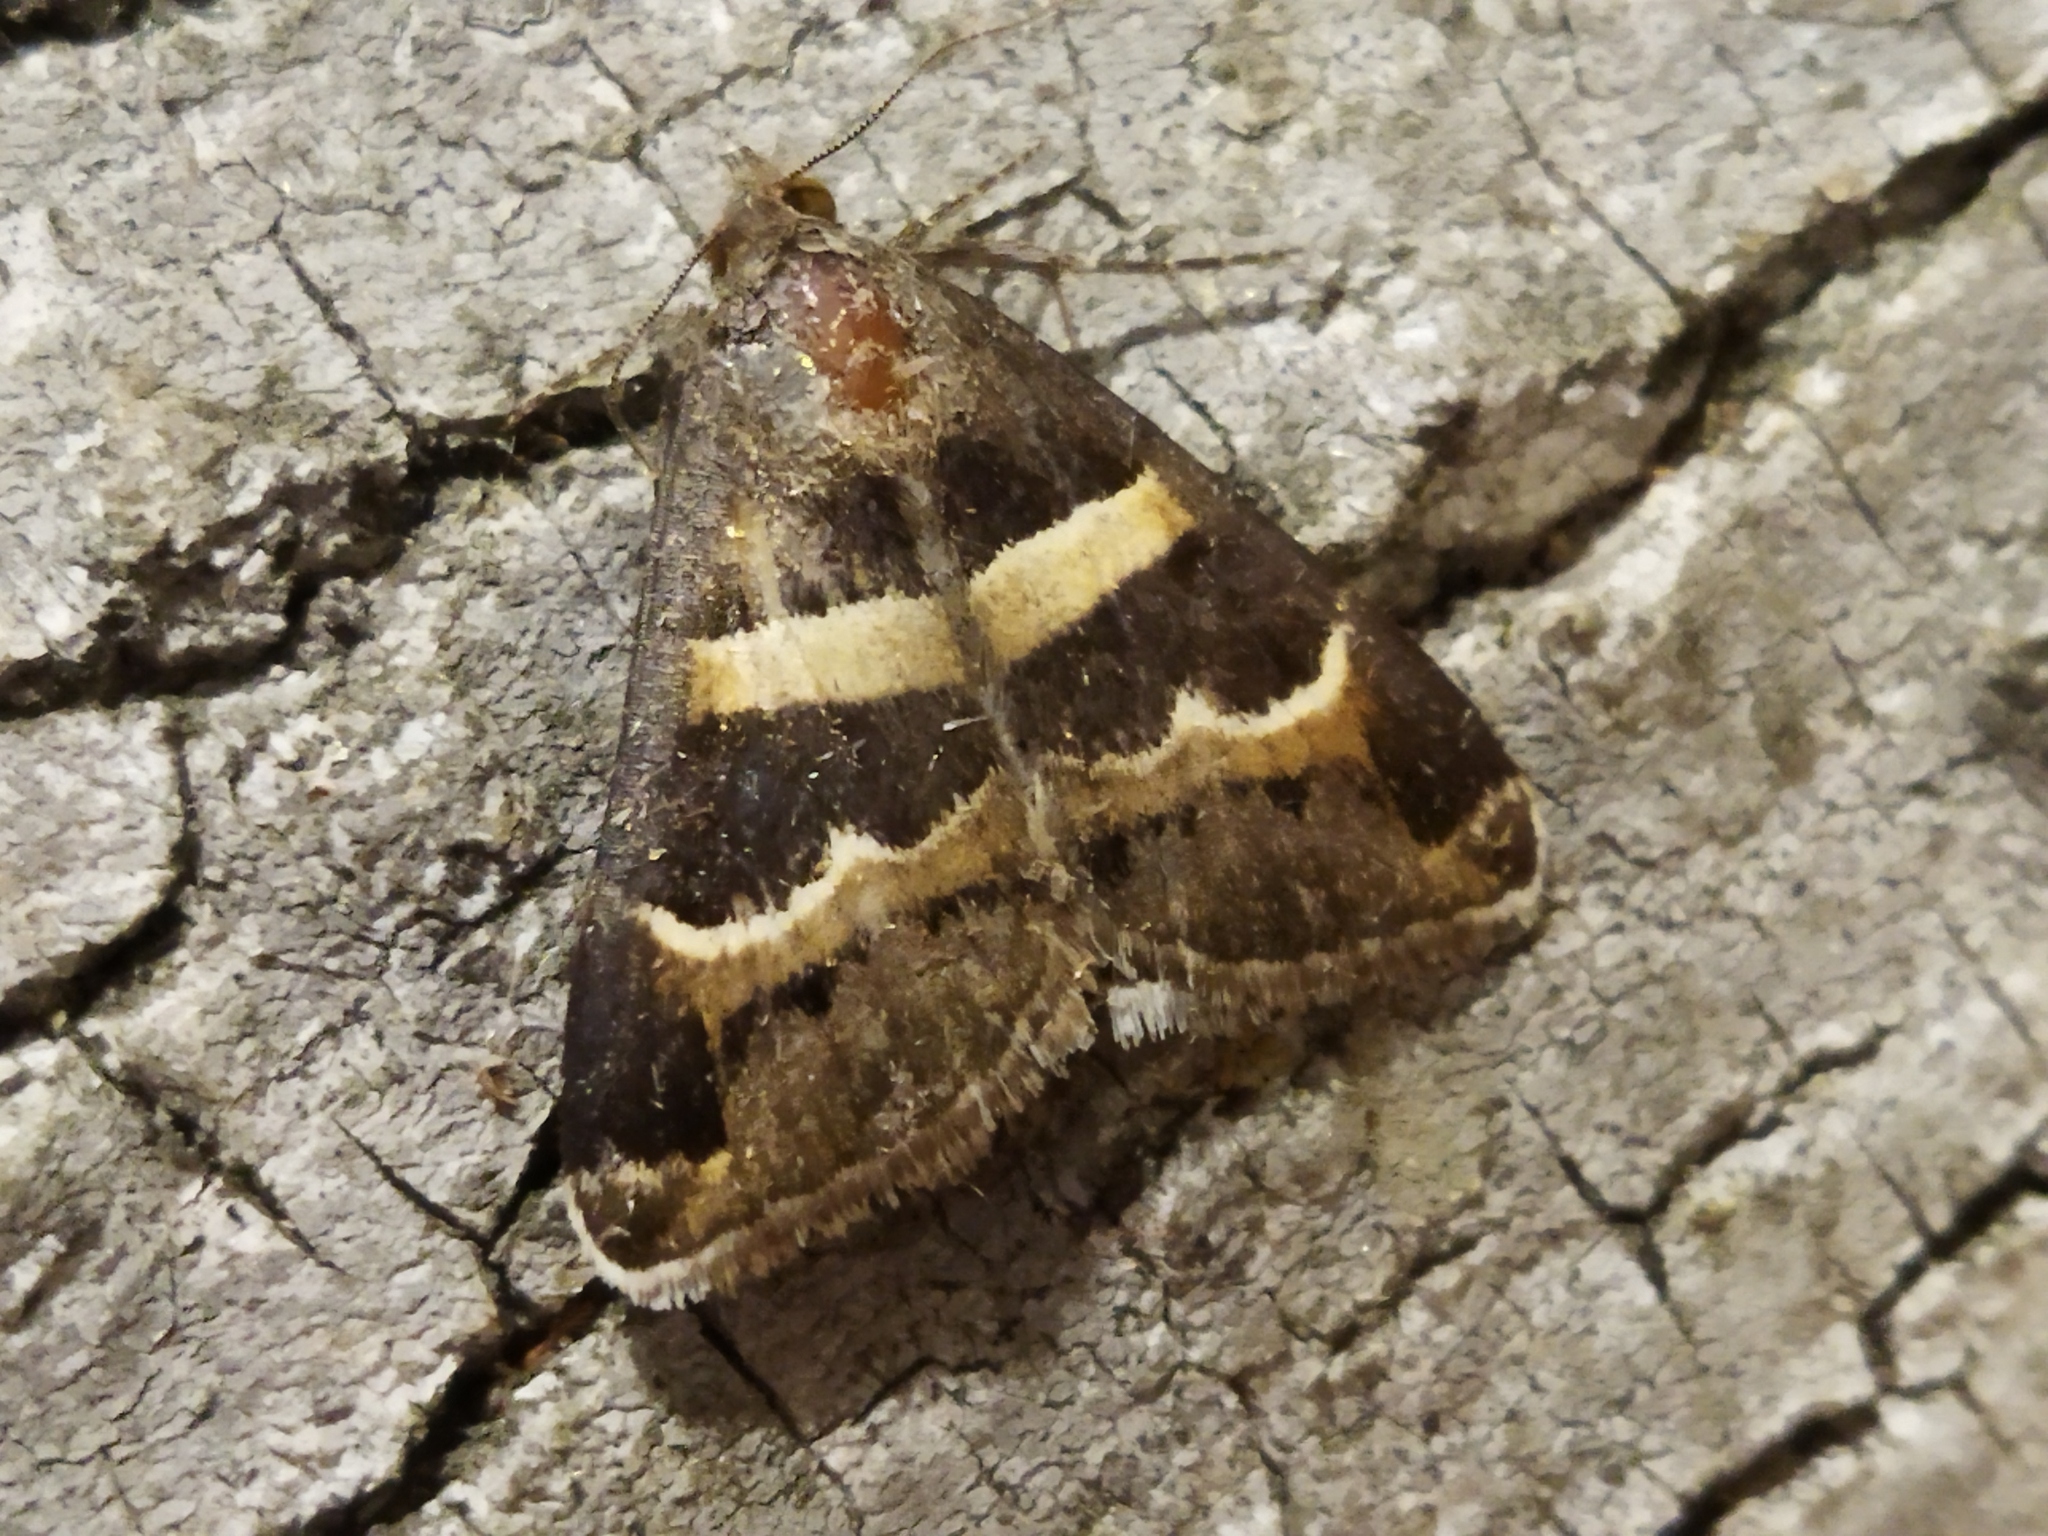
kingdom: Animalia
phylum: Arthropoda
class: Insecta
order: Lepidoptera
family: Erebidae
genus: Grammodes
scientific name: Grammodes stolida
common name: Geometrician
